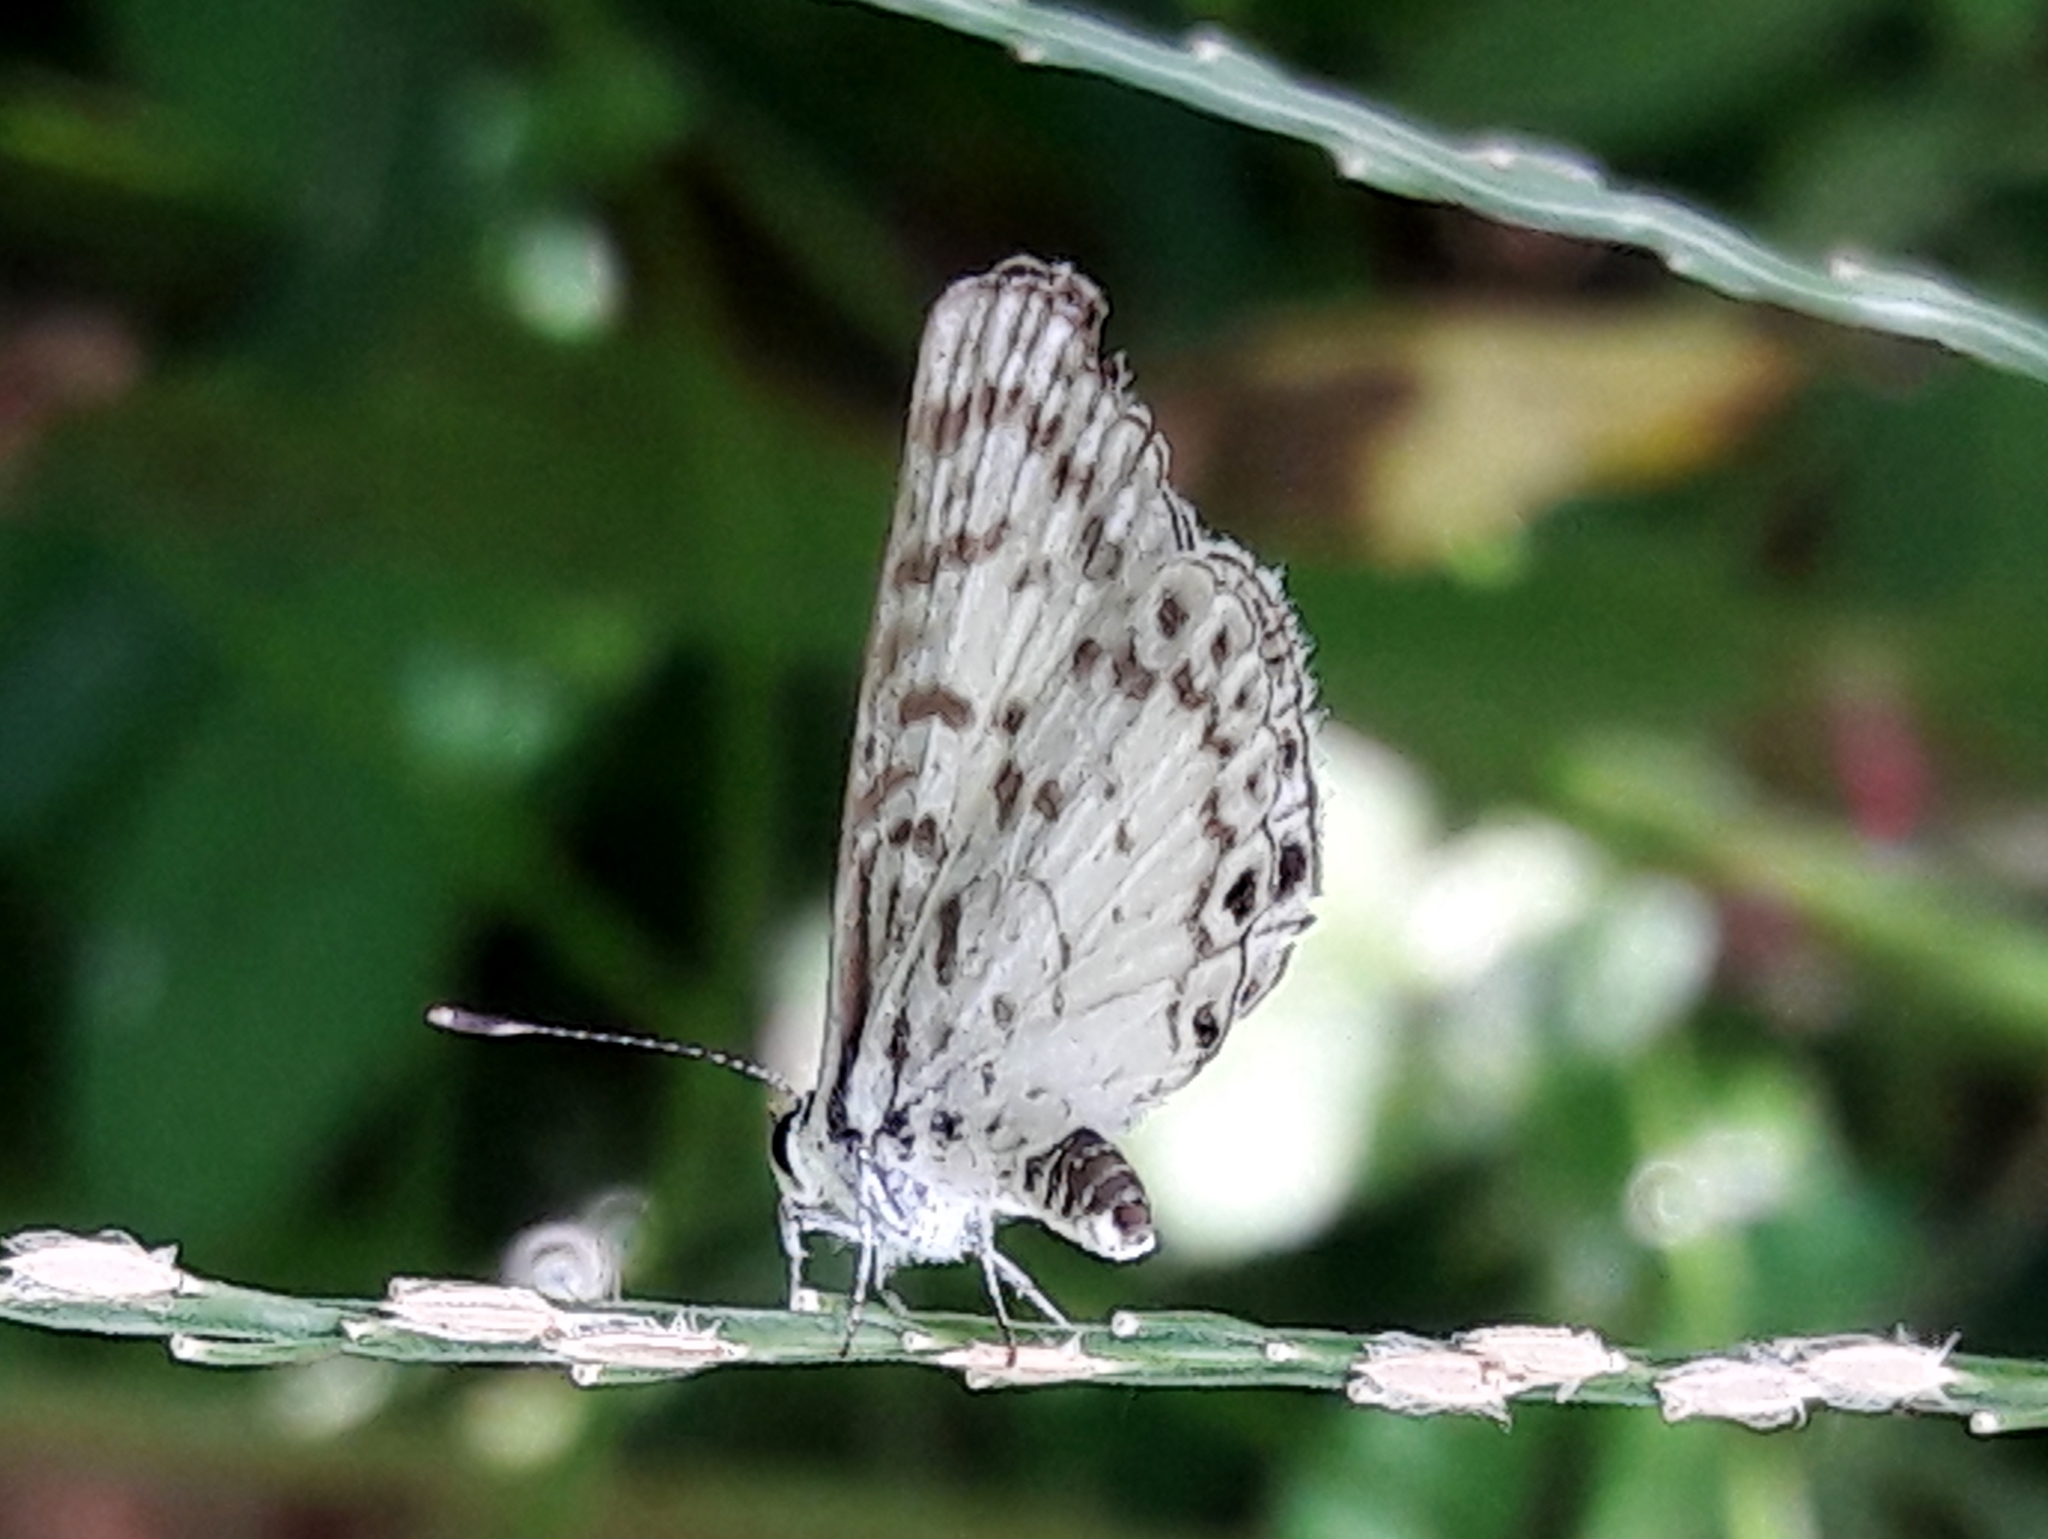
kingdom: Animalia
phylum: Arthropoda
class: Insecta
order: Lepidoptera
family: Lycaenidae
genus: Leptotes
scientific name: Leptotes cassius
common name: Cassius blue
